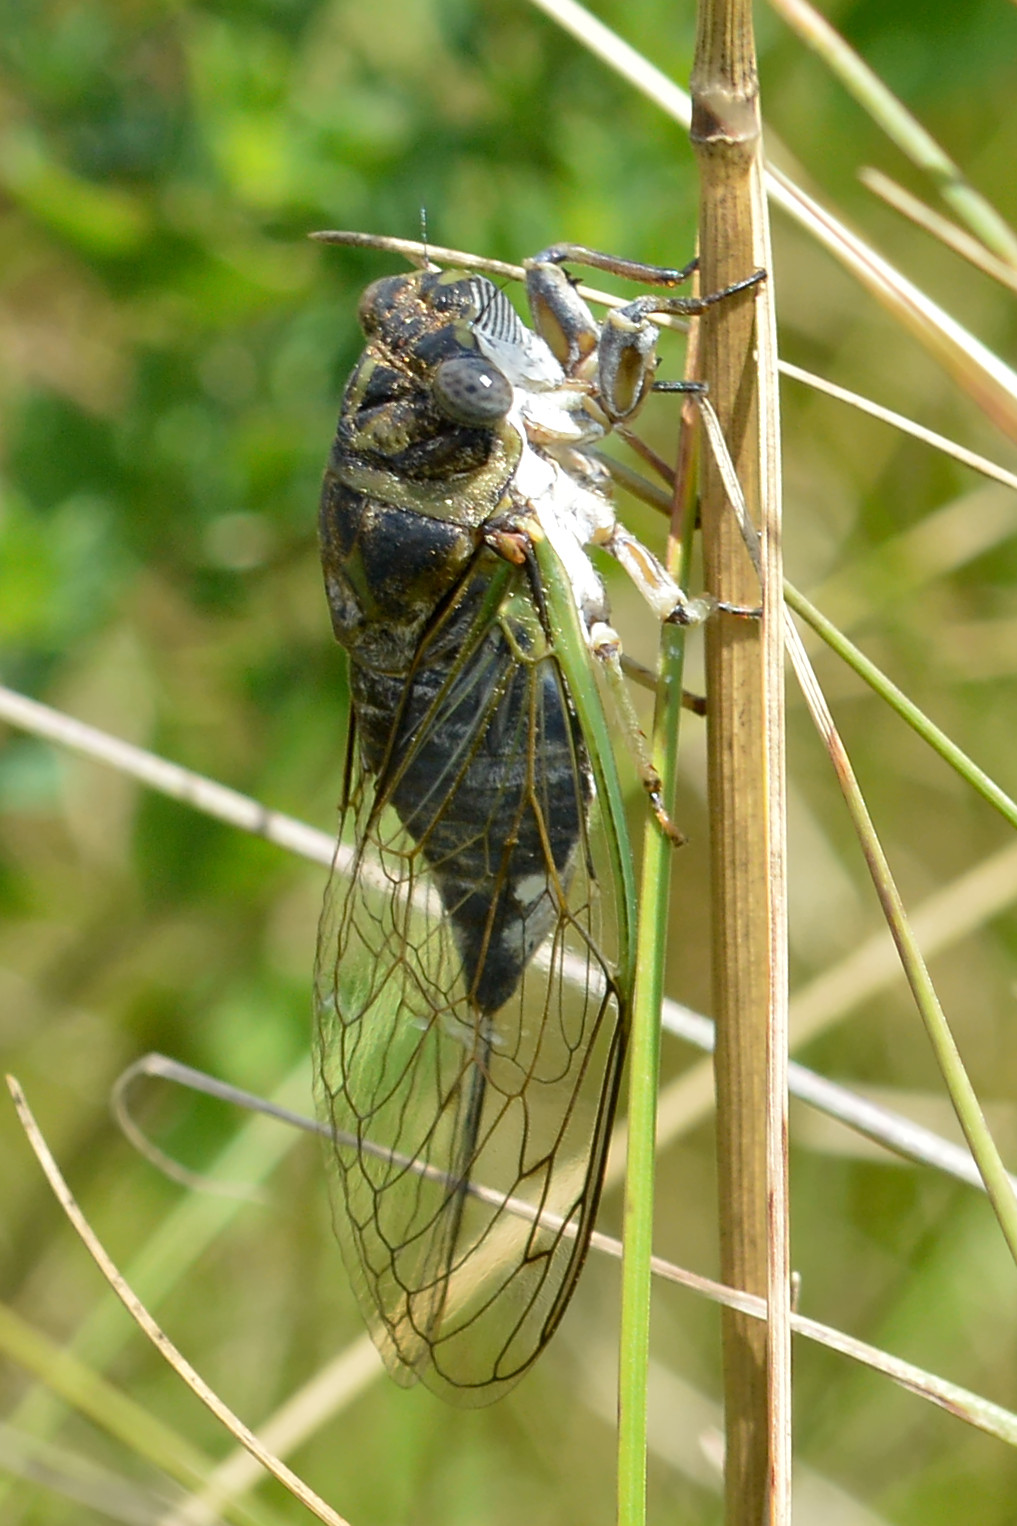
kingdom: Animalia
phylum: Arthropoda
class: Insecta
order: Hemiptera
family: Cicadidae
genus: Neotibicen
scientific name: Neotibicen canicularis
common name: God-day cicada
